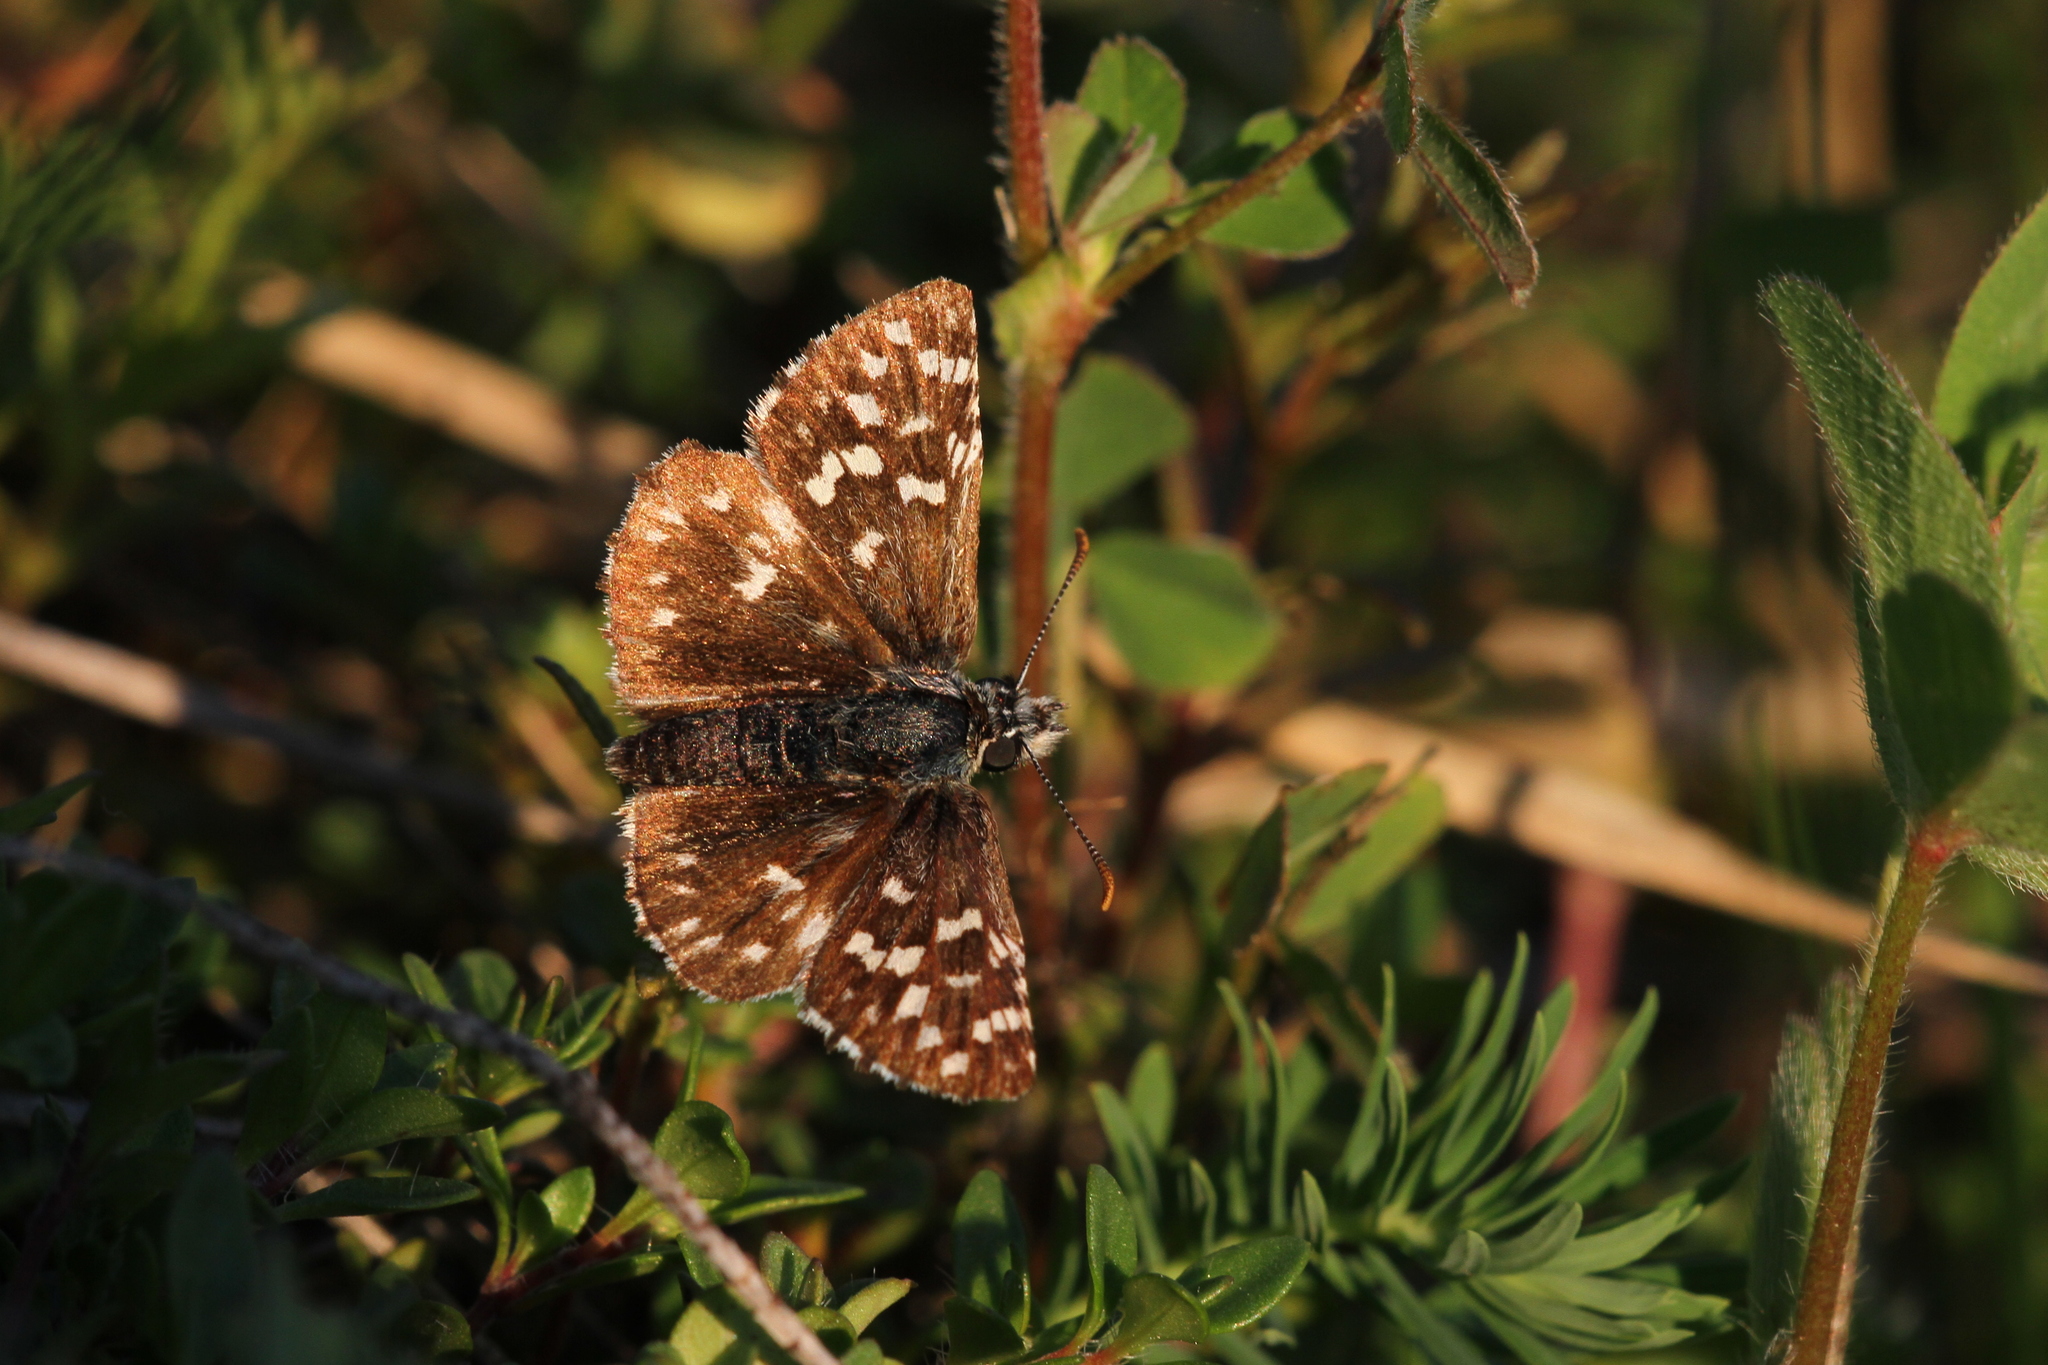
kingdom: Animalia
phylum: Arthropoda
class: Insecta
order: Lepidoptera
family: Hesperiidae
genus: Pyrgus
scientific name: Pyrgus malvae
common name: Grizzled skipper
